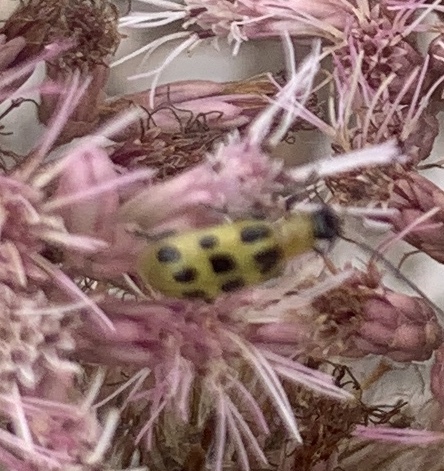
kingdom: Animalia
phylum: Arthropoda
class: Insecta
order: Coleoptera
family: Chrysomelidae
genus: Diabrotica
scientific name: Diabrotica undecimpunctata
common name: Spotted cucumber beetle
